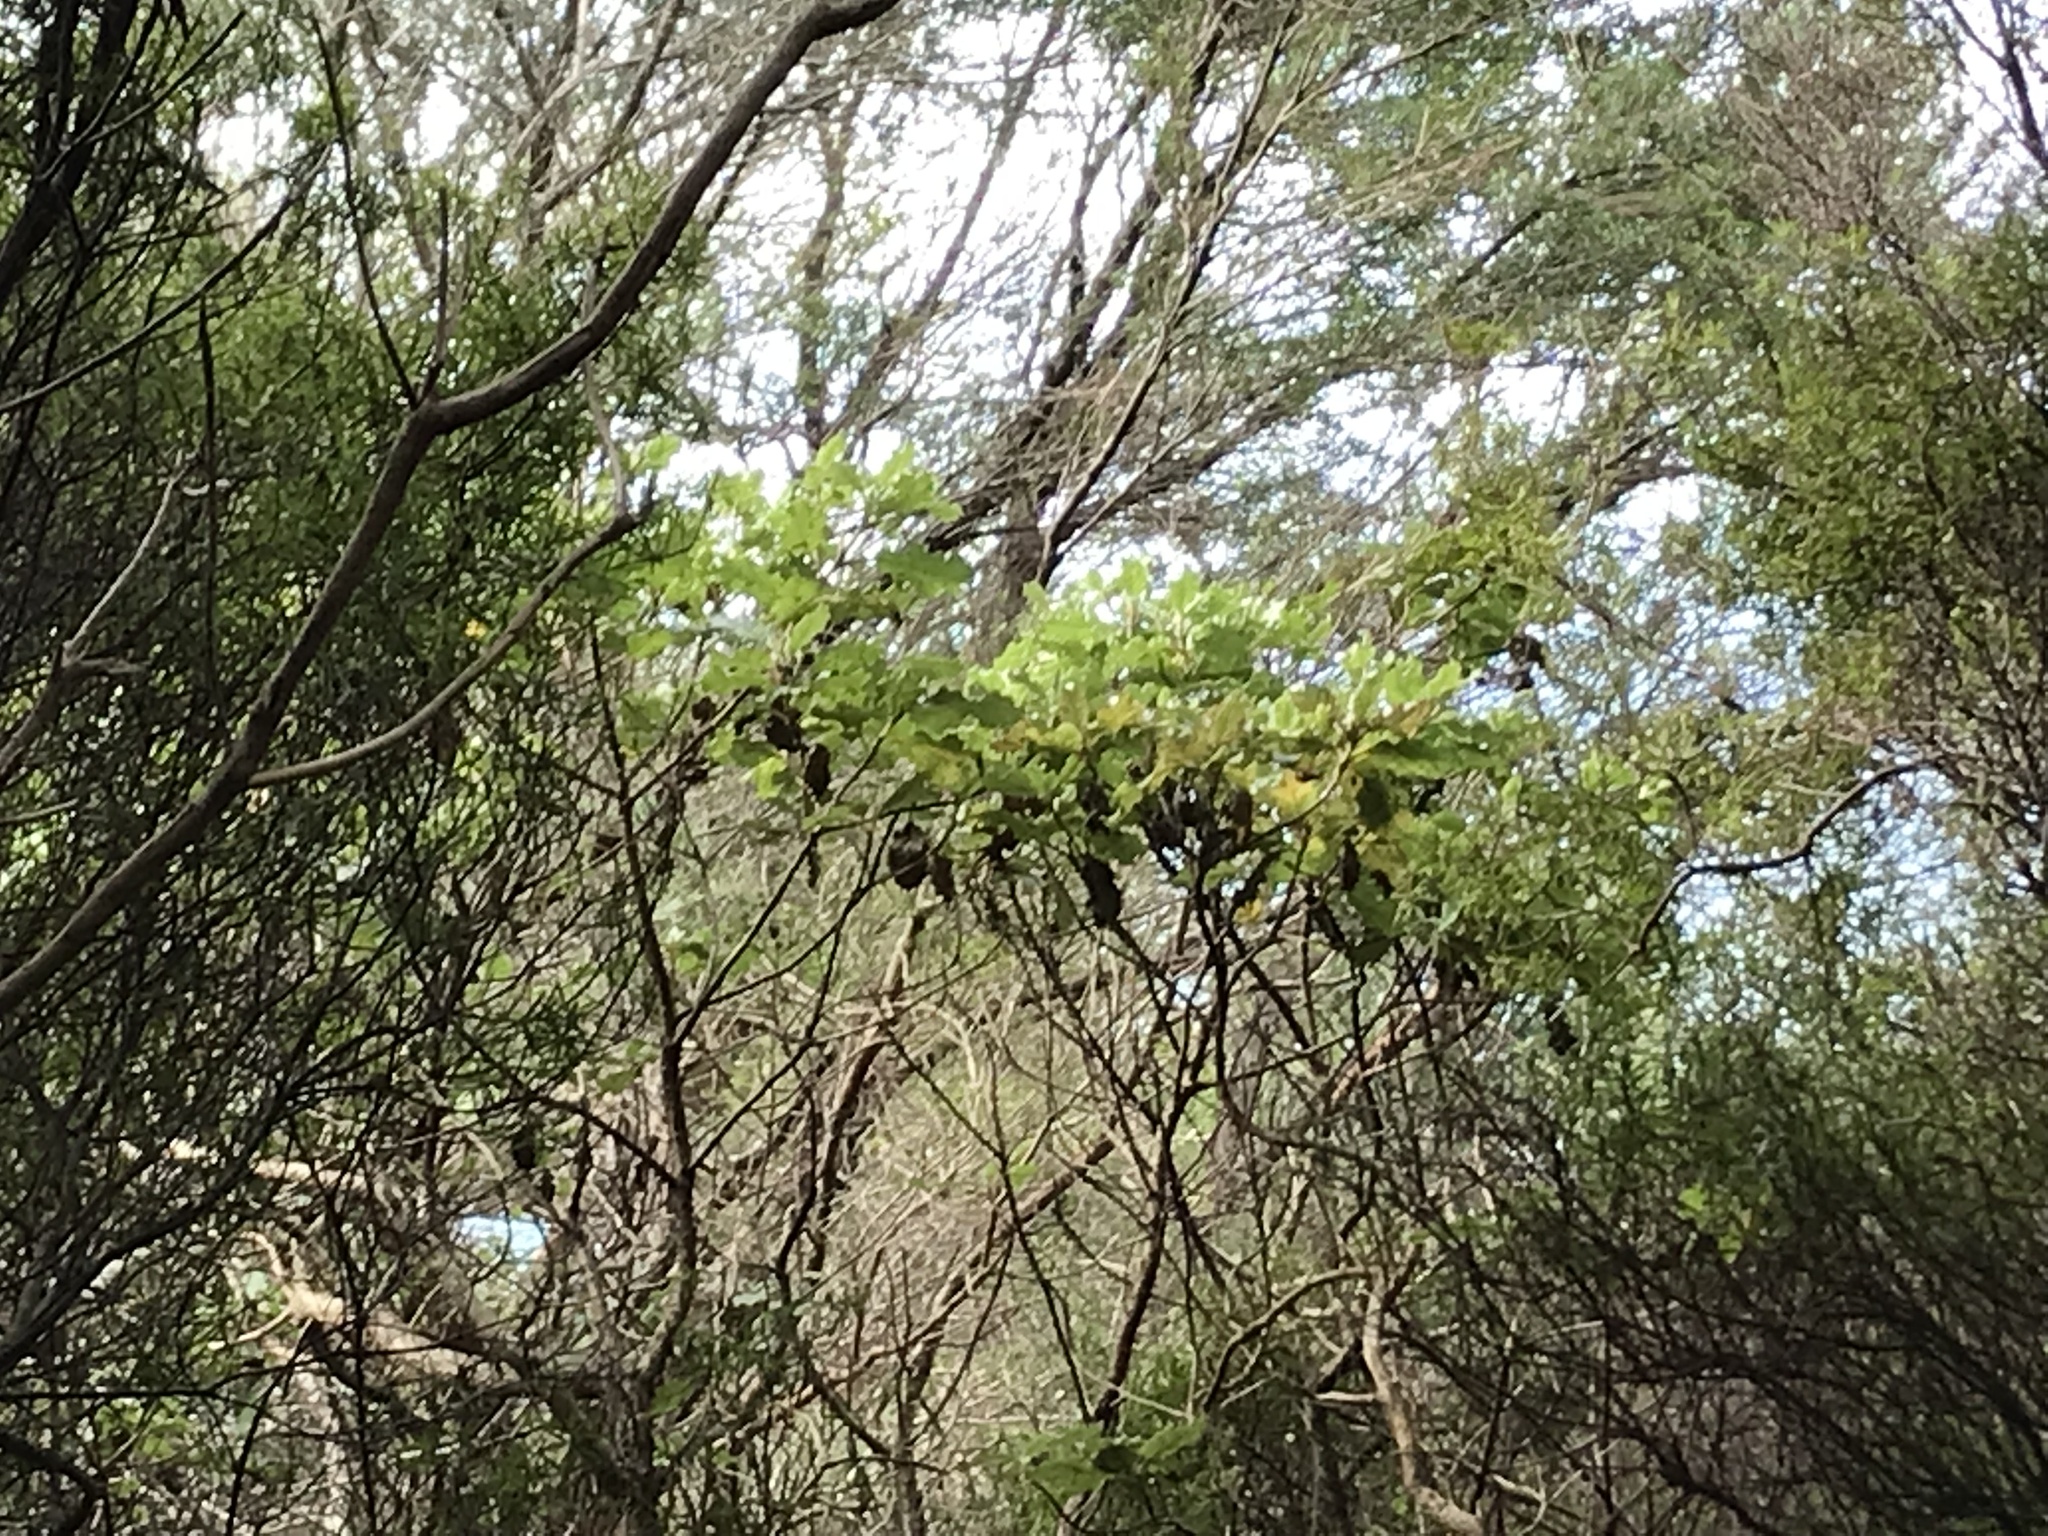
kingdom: Plantae
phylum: Tracheophyta
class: Magnoliopsida
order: Asterales
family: Asteraceae
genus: Brachyglottis
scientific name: Brachyglottis pentacopa
